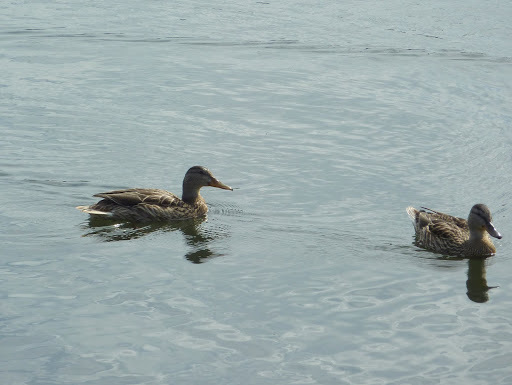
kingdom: Animalia
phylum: Chordata
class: Aves
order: Anseriformes
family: Anatidae
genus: Anas
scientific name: Anas platyrhynchos
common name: Mallard
